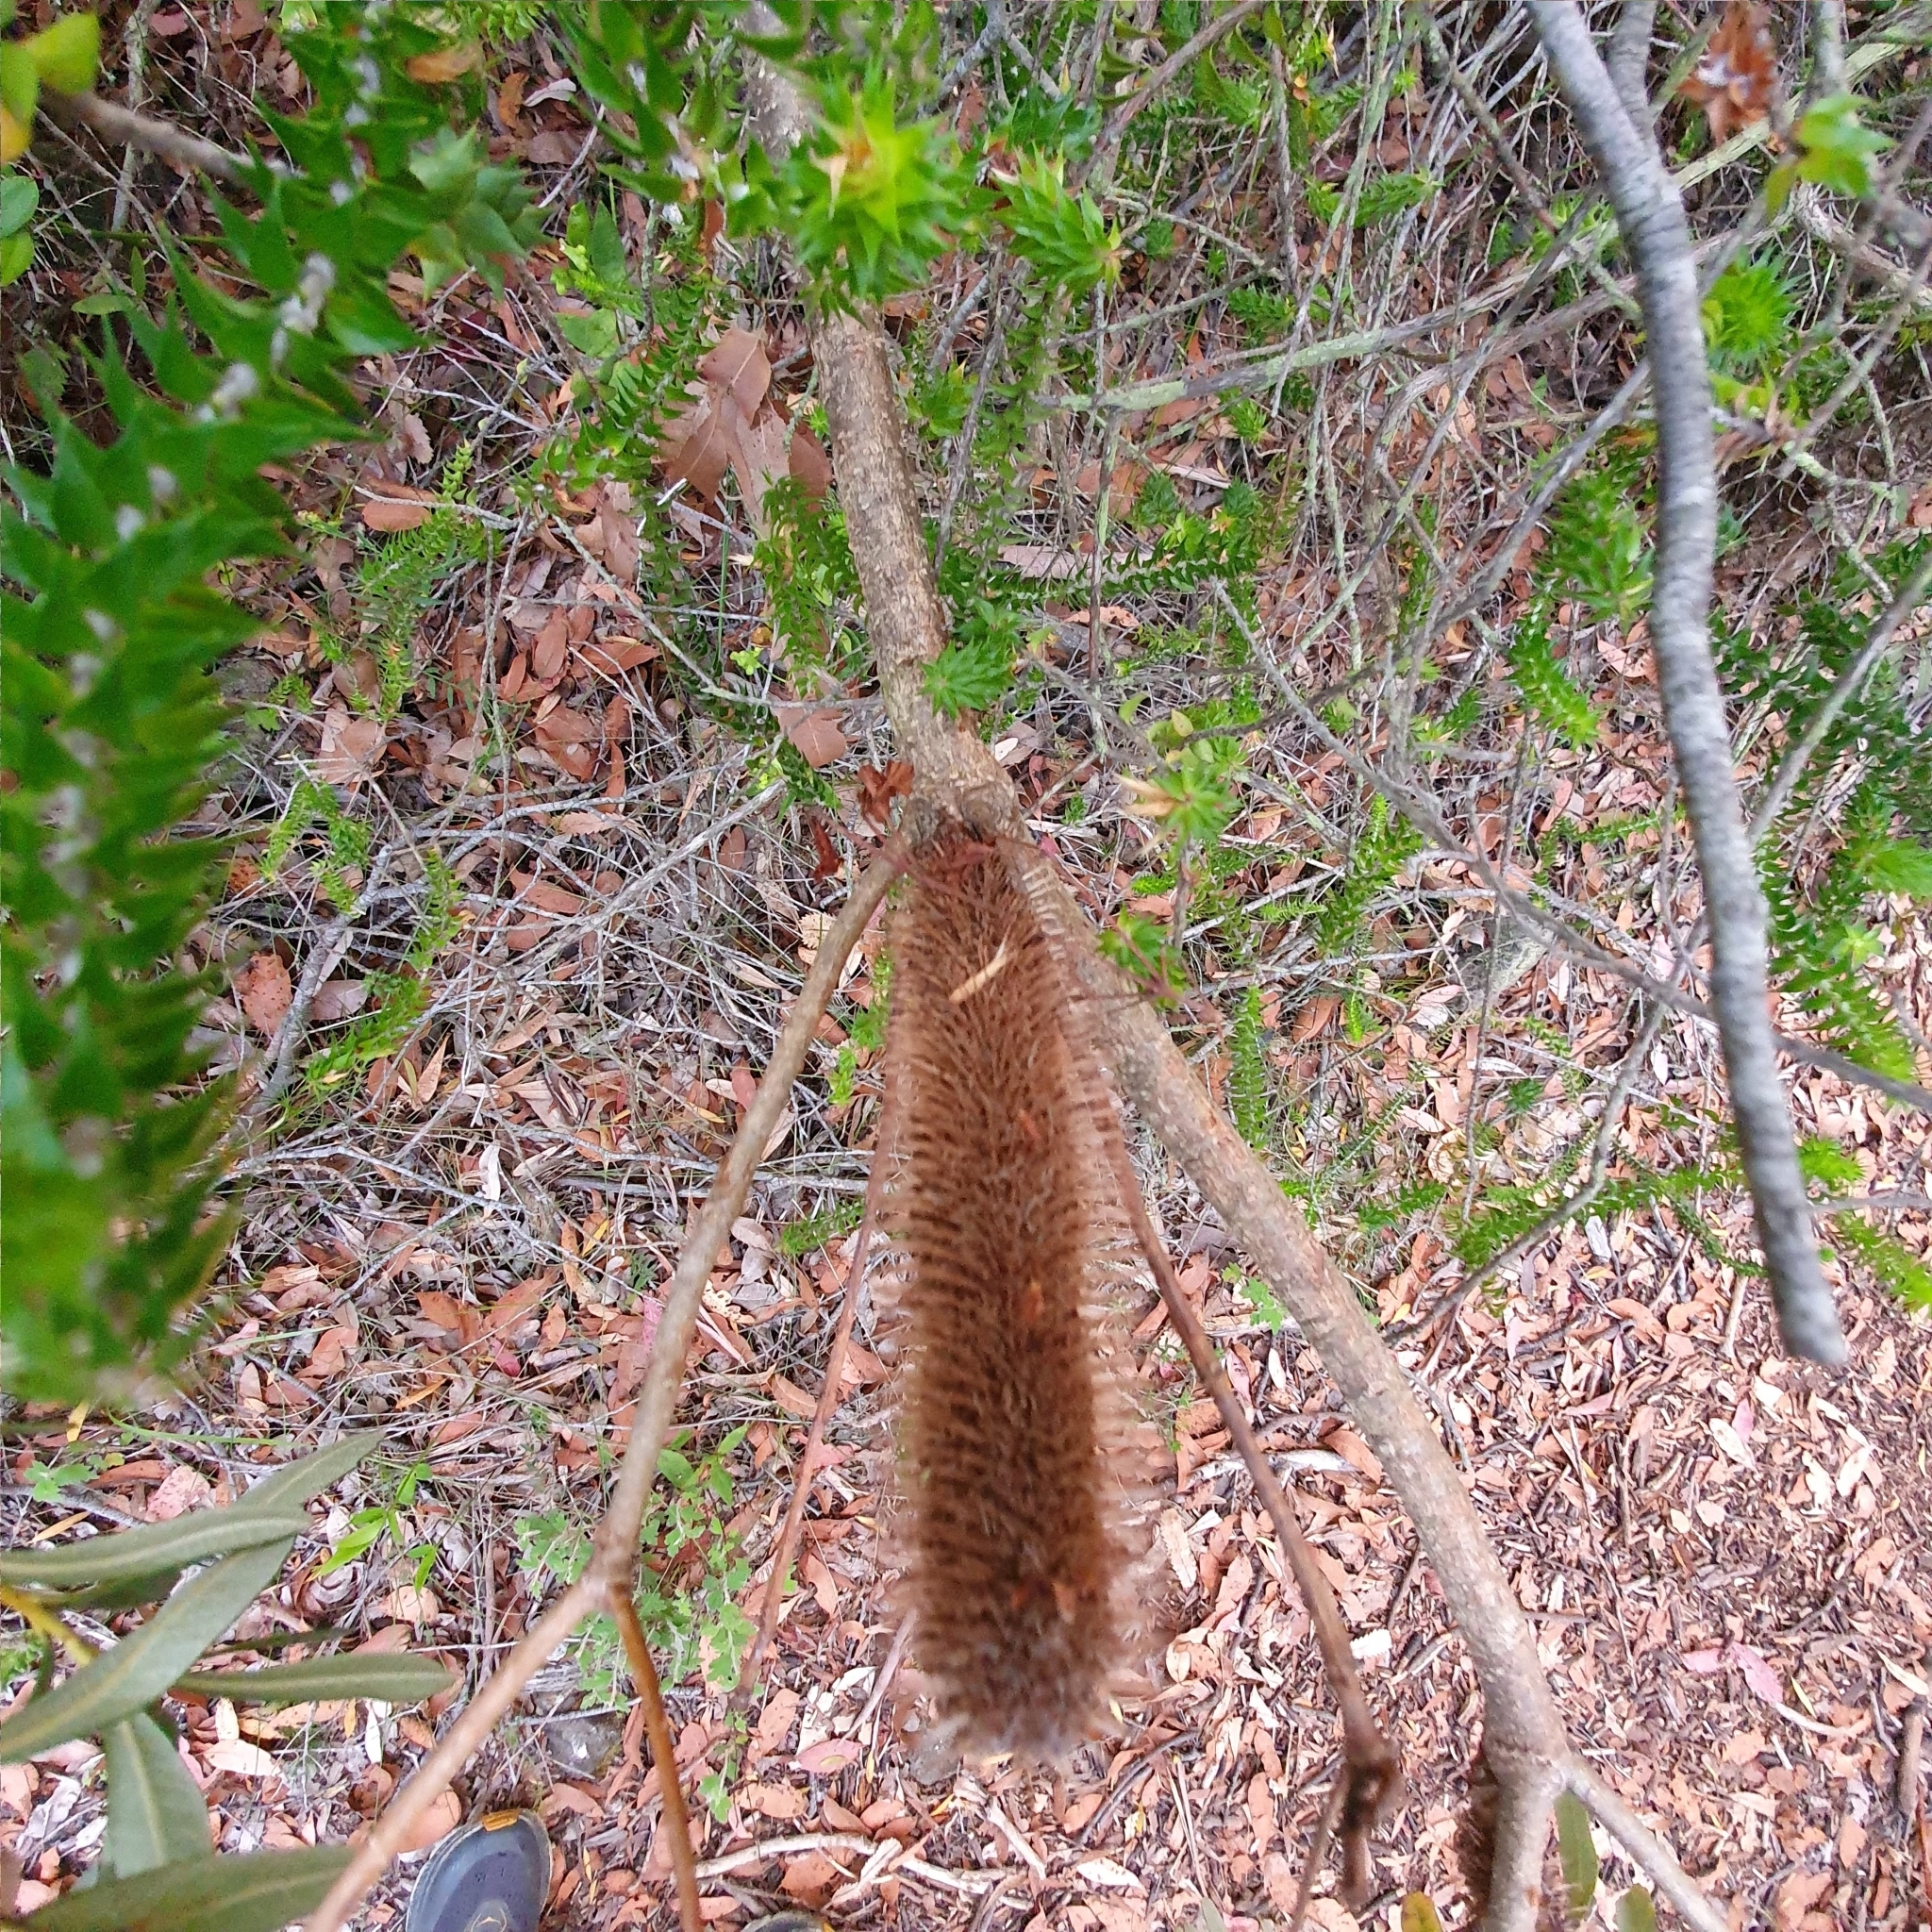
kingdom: Plantae
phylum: Tracheophyta
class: Magnoliopsida
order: Proteales
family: Proteaceae
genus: Banksia
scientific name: Banksia paludosa
